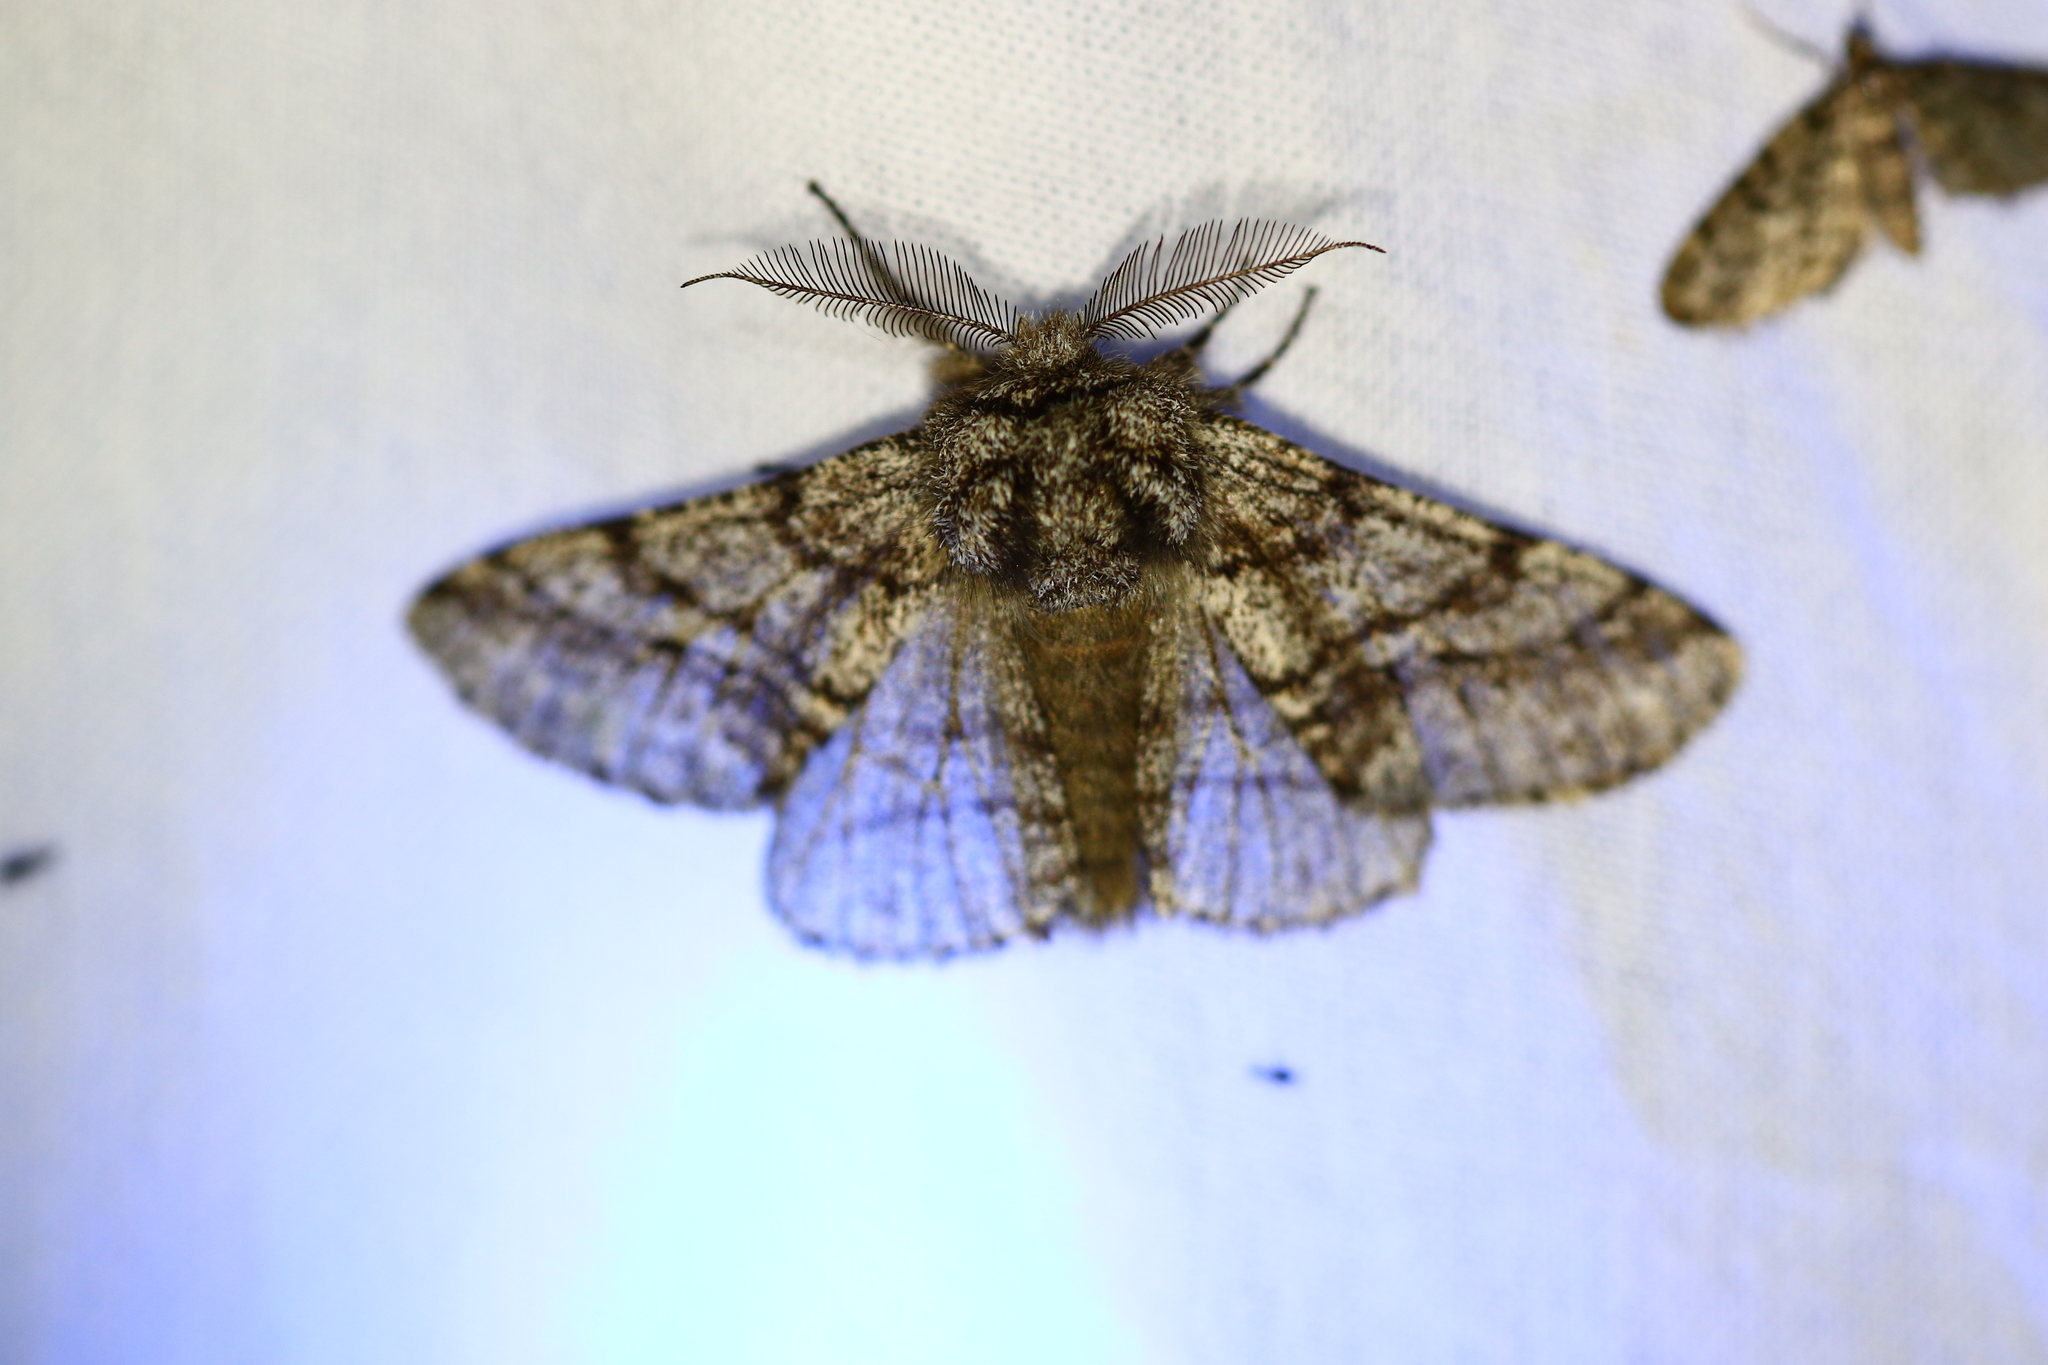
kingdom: Animalia
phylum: Arthropoda
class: Insecta
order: Lepidoptera
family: Geometridae
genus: Lycia
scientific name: Lycia hirtaria
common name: Brindled beauty
